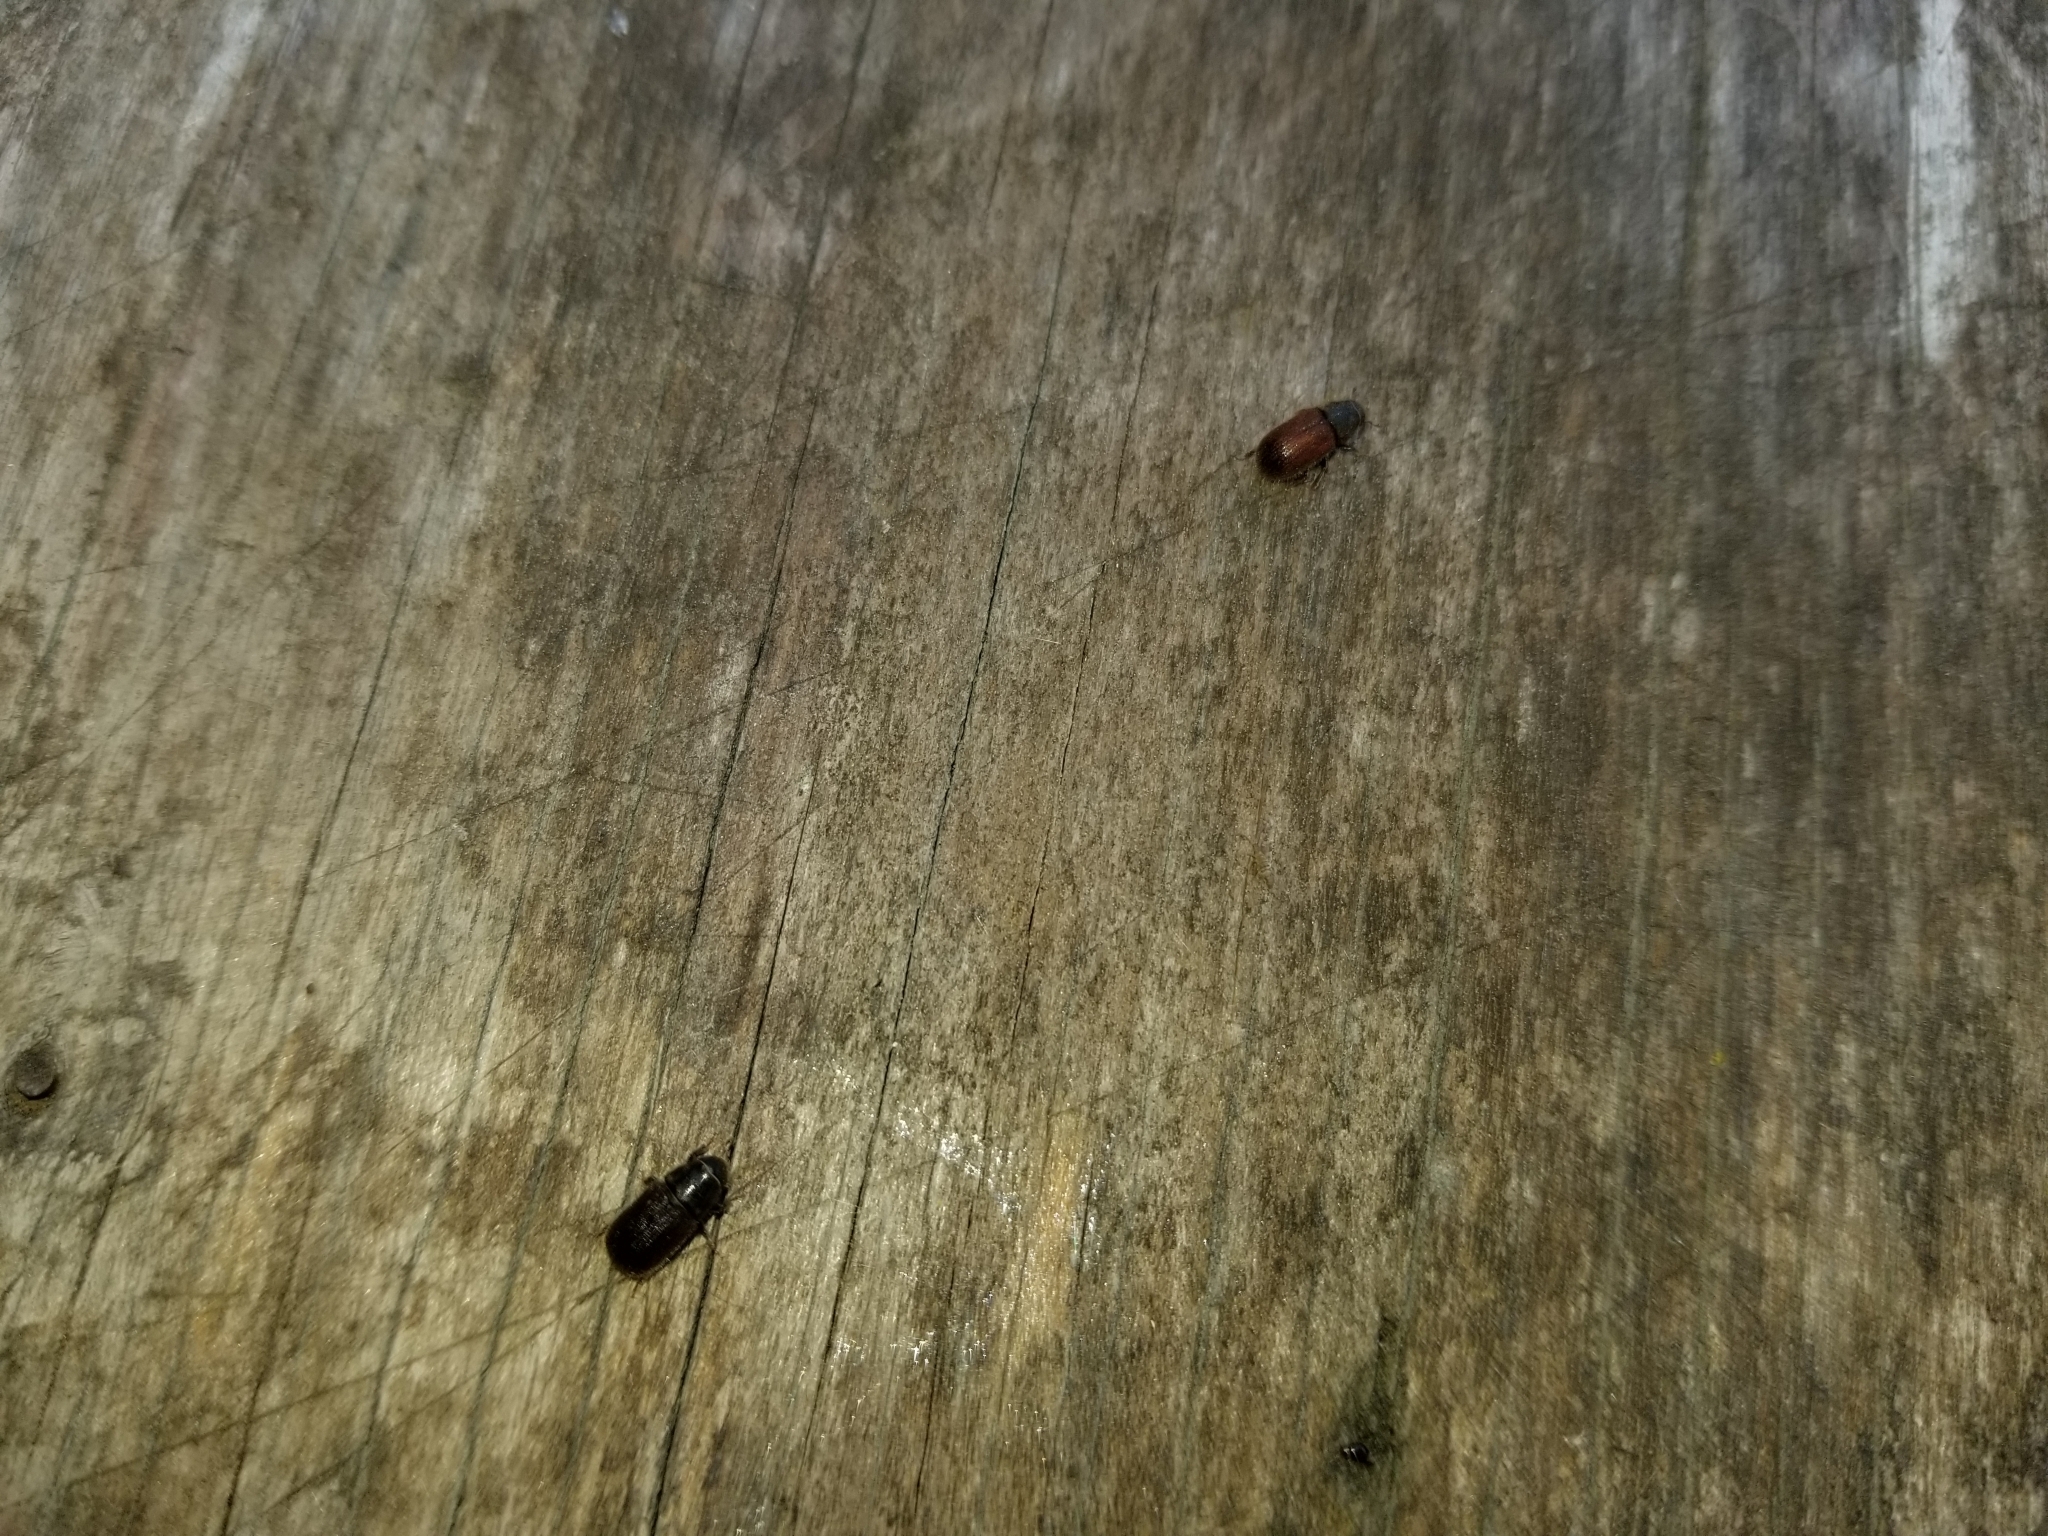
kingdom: Animalia
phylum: Arthropoda
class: Insecta
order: Coleoptera
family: Curculionidae
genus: Dendroctonus
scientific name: Dendroctonus rufipennis
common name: Spruce beetle
